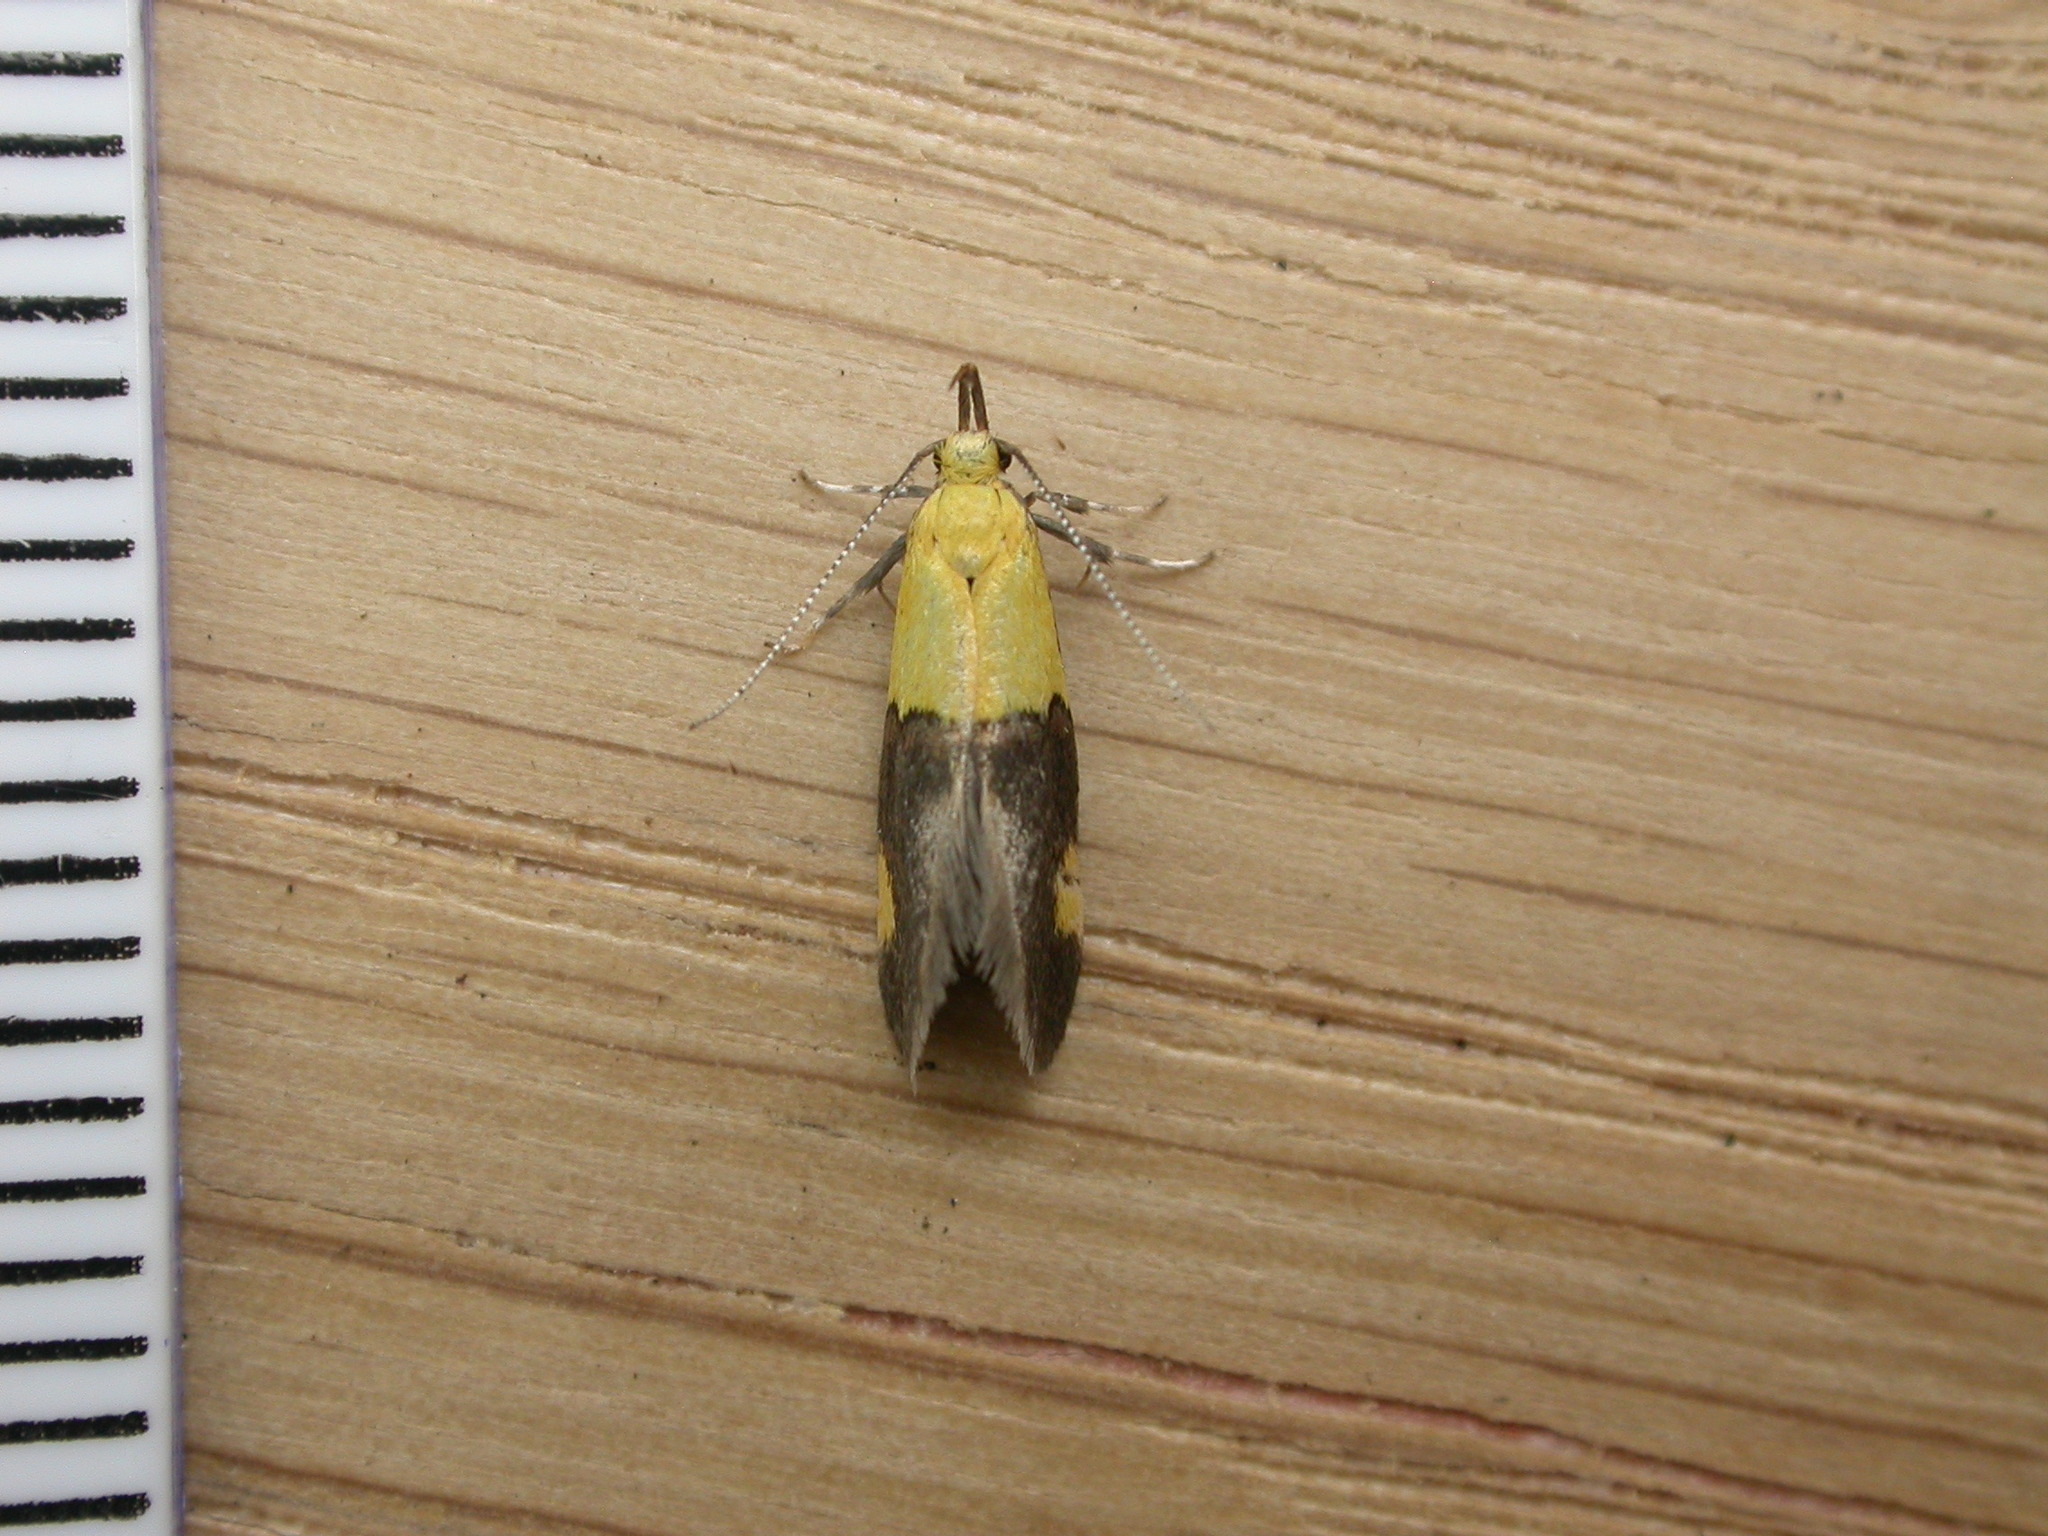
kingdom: Animalia
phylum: Arthropoda
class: Insecta
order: Lepidoptera
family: Oecophoridae
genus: Oecophora
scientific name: Oecophora bractella
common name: Gold-base tubic
